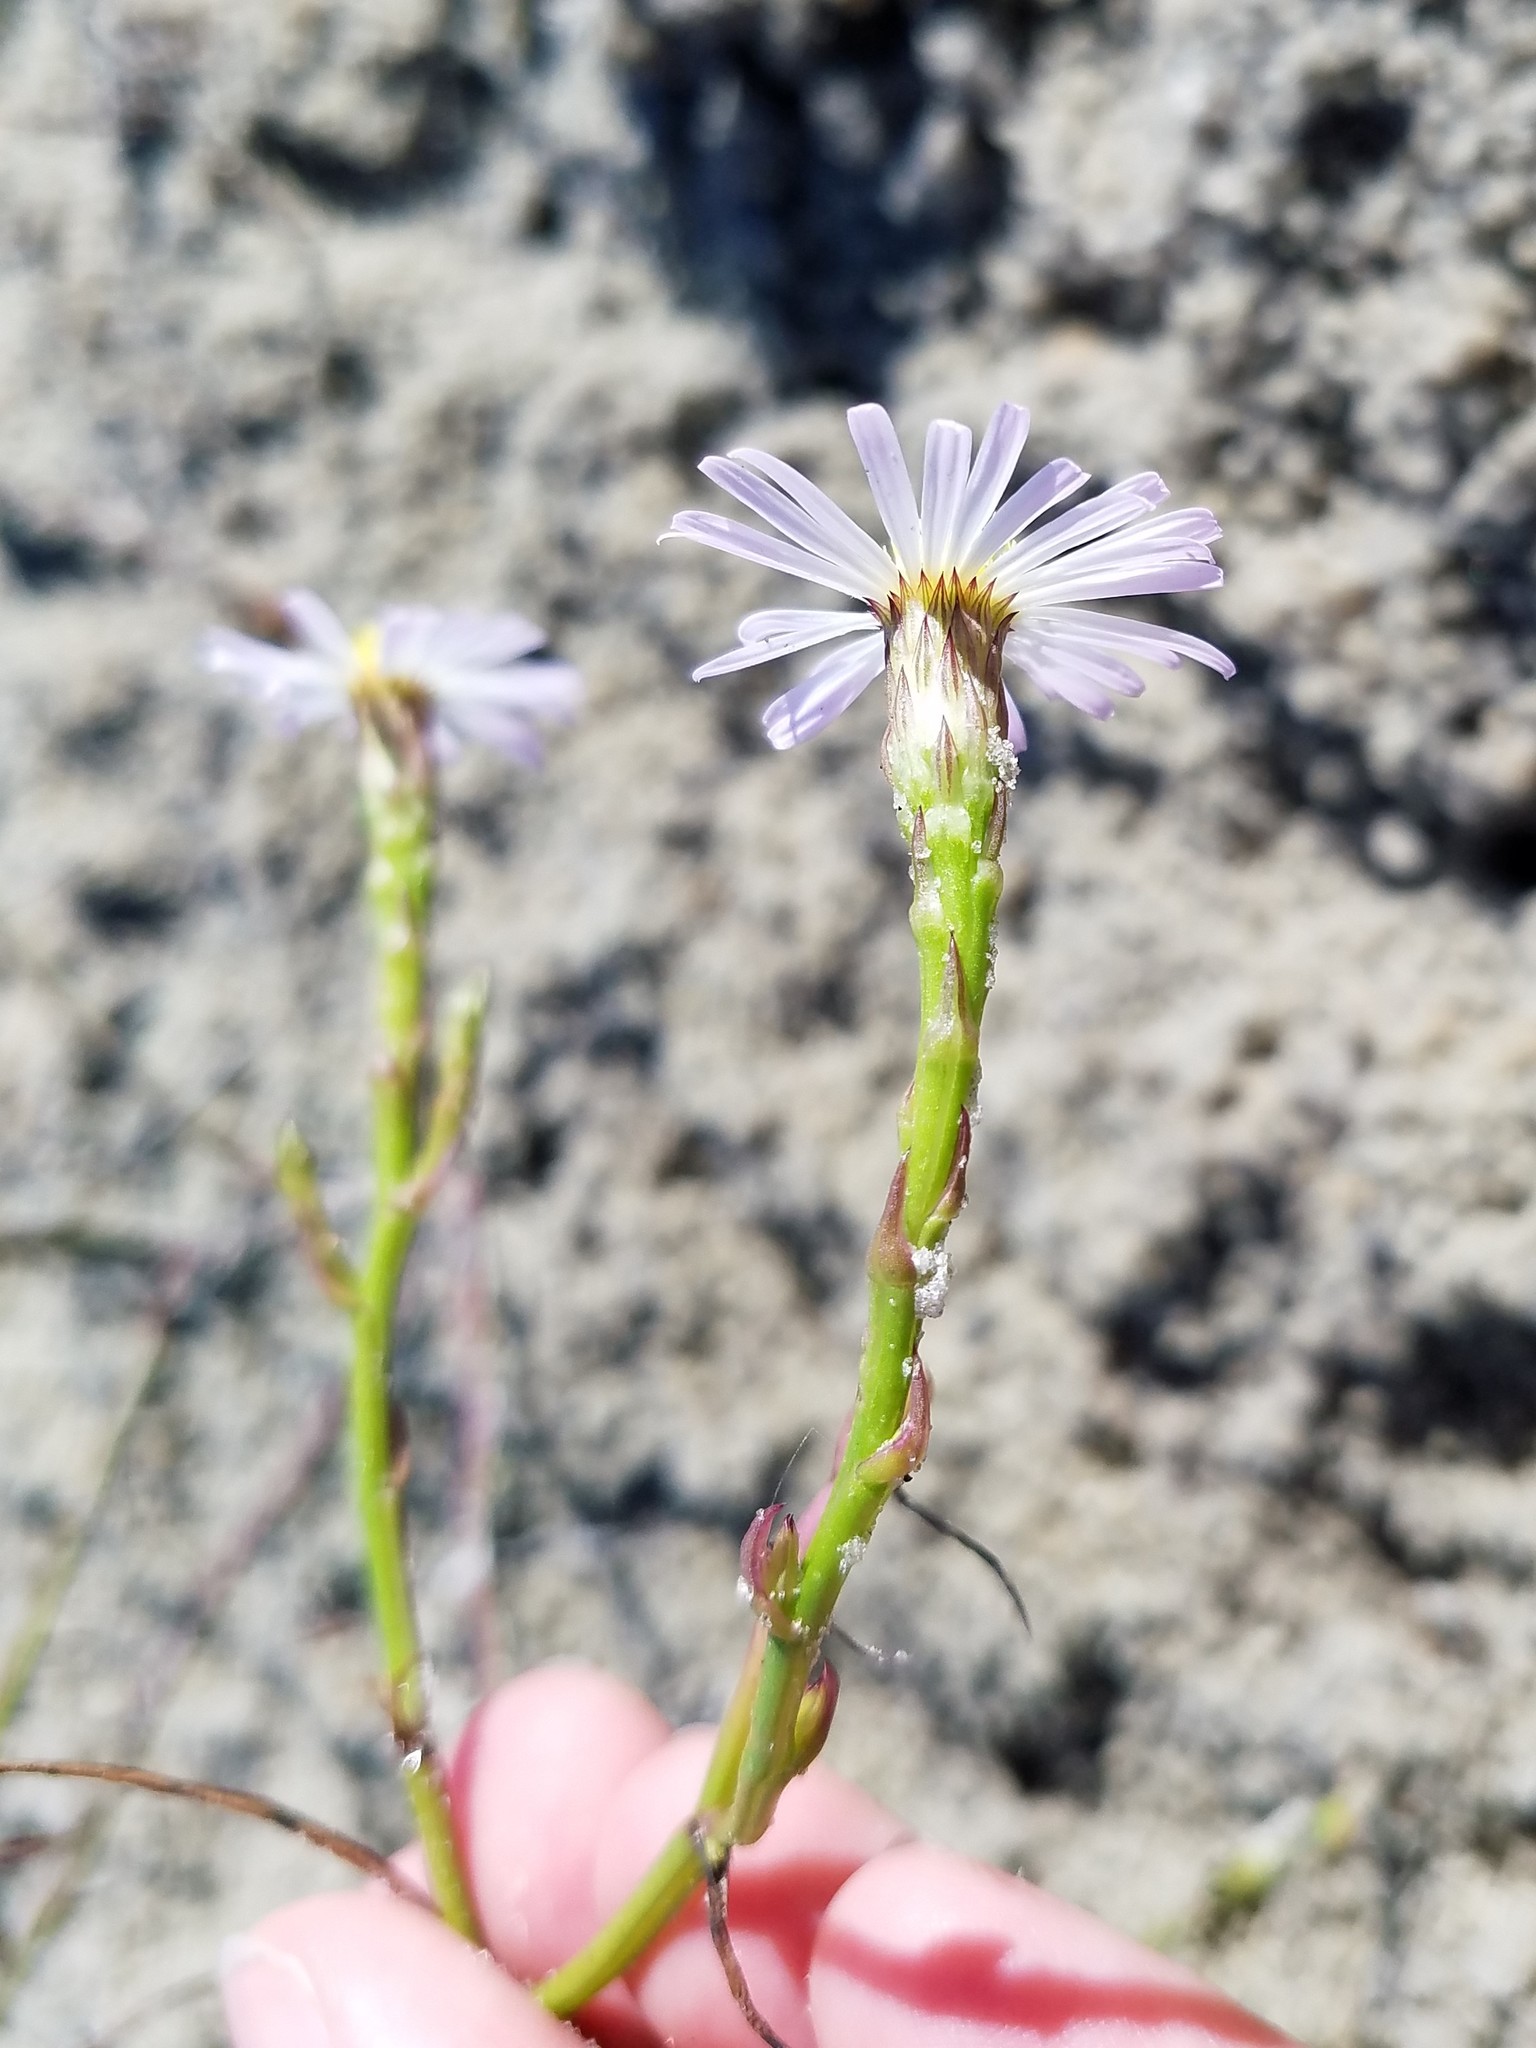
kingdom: Plantae
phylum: Tracheophyta
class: Magnoliopsida
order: Asterales
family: Asteraceae
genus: Symphyotrichum
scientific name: Symphyotrichum subulatum
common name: Annual saltmarsh aster
